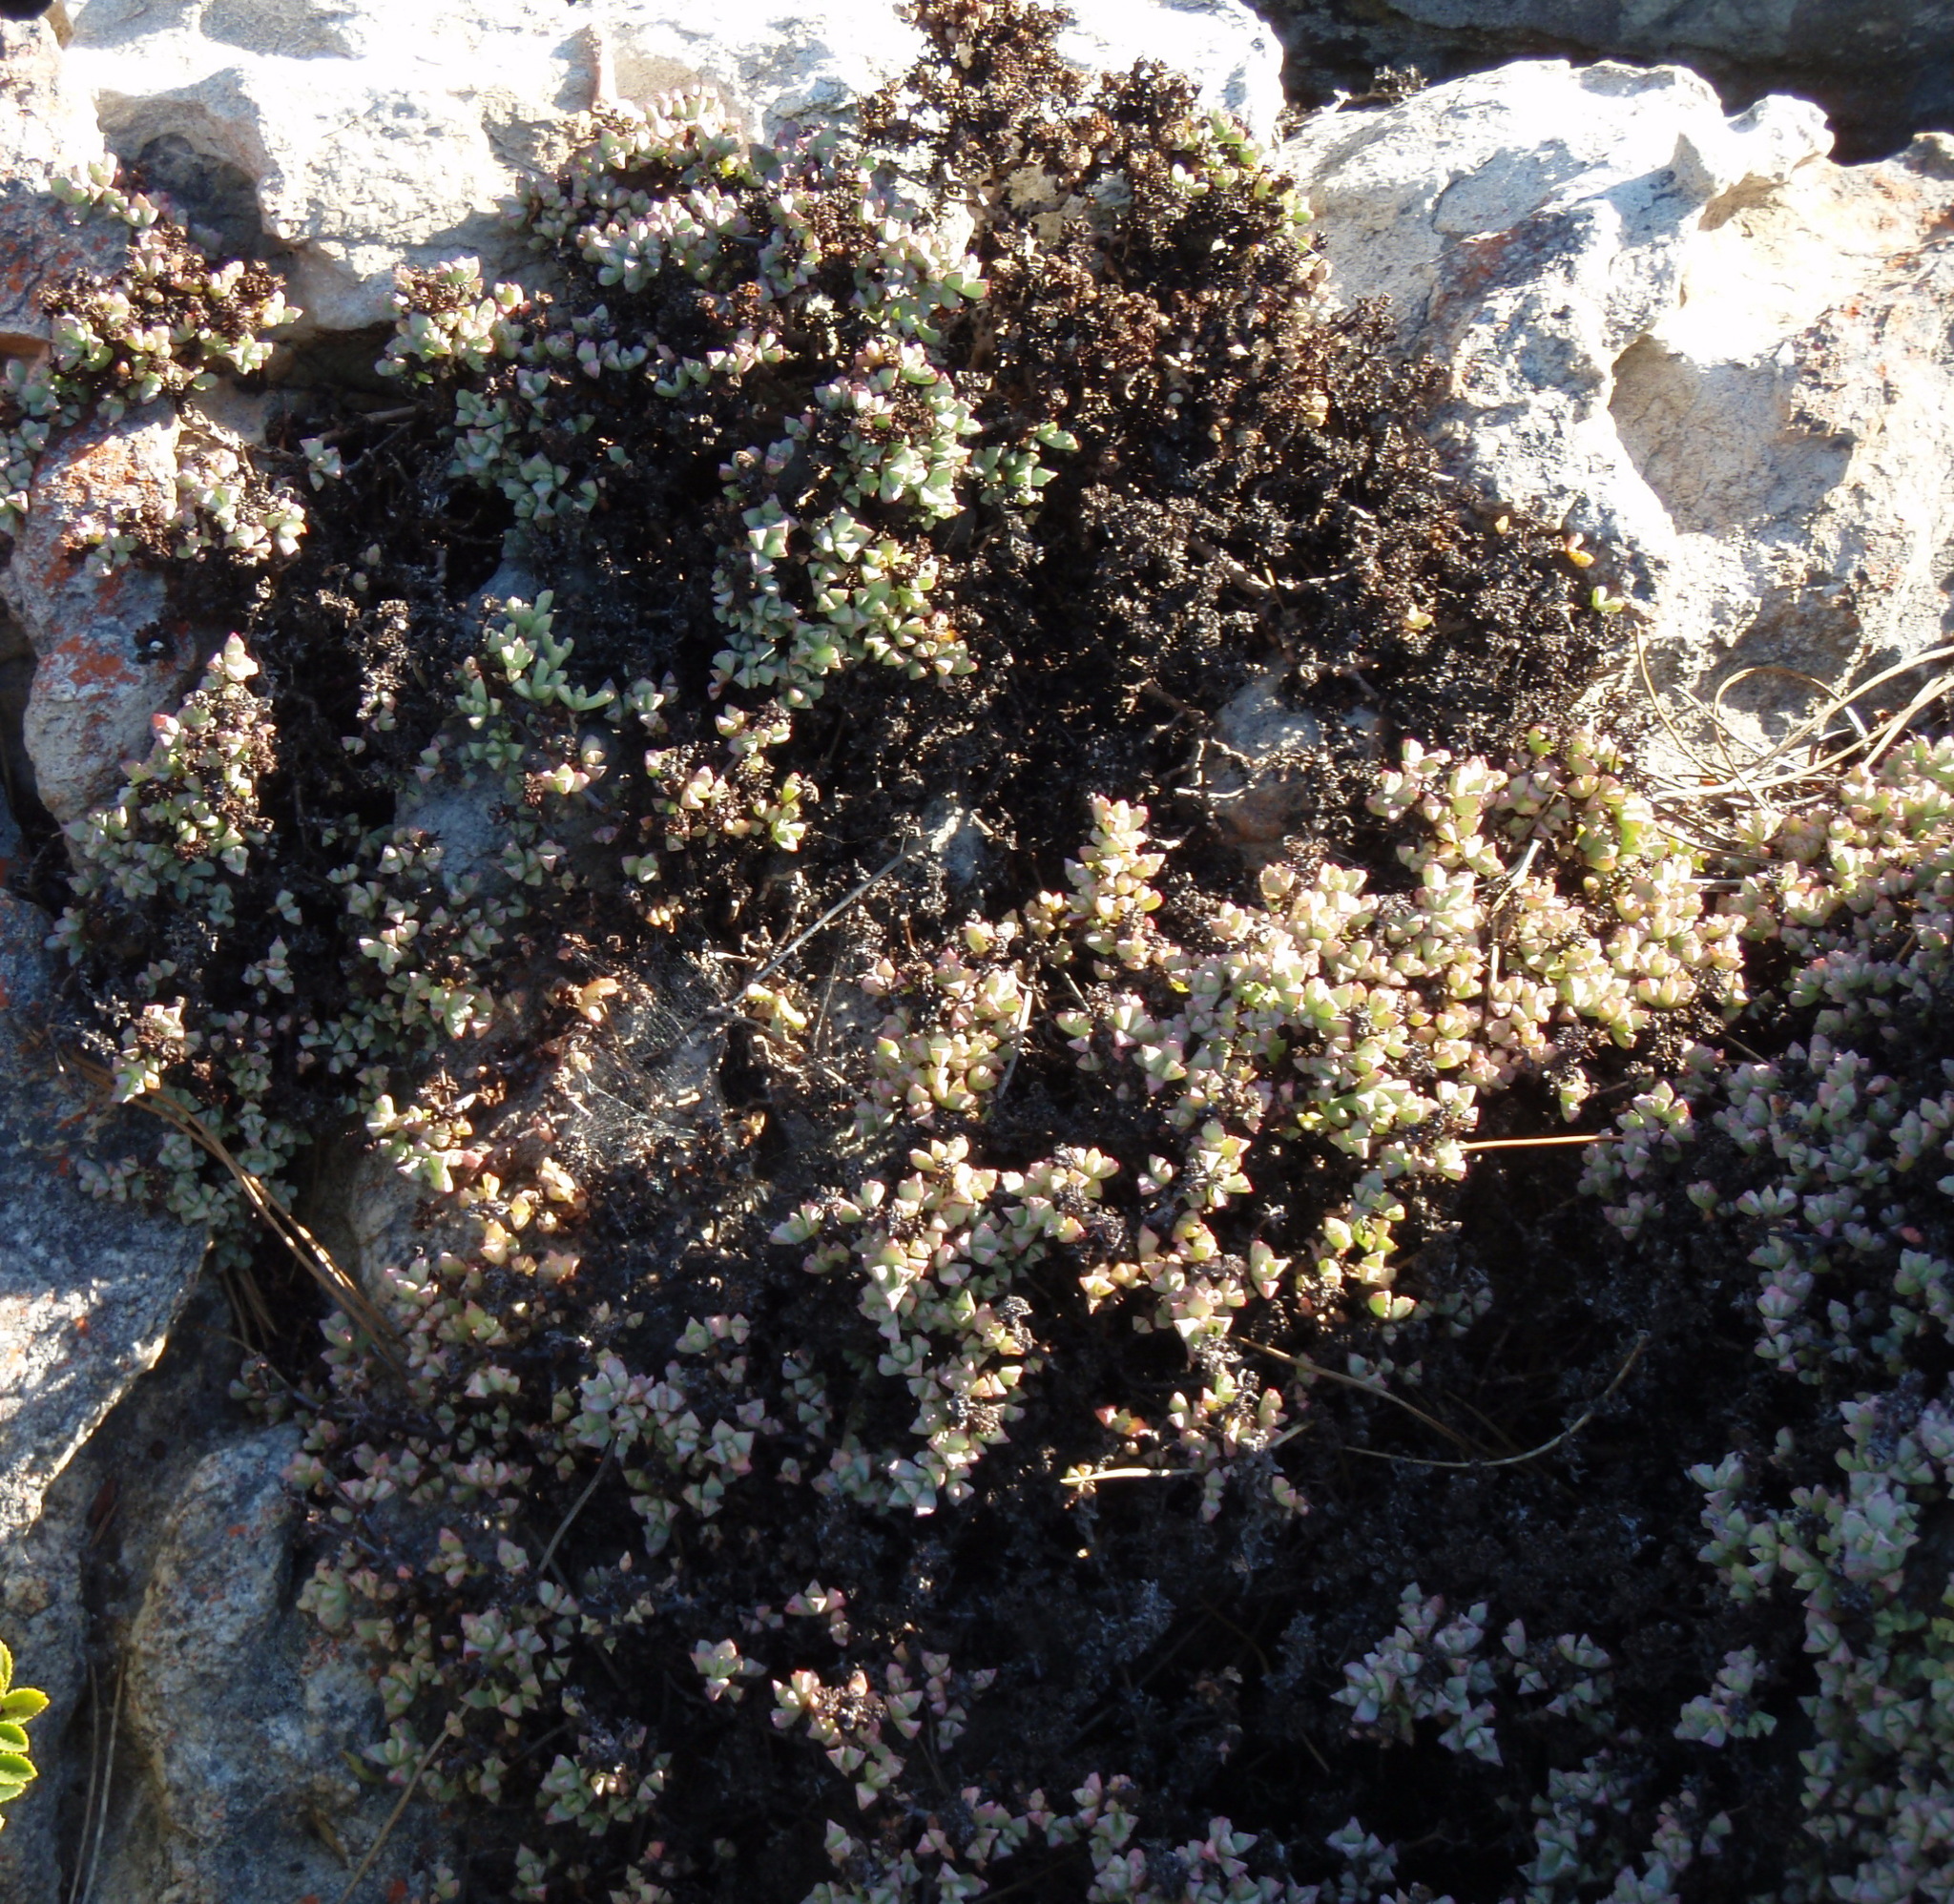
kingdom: Plantae
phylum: Tracheophyta
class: Magnoliopsida
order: Caryophyllales
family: Aizoaceae
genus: Oscularia
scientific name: Oscularia deltoides
